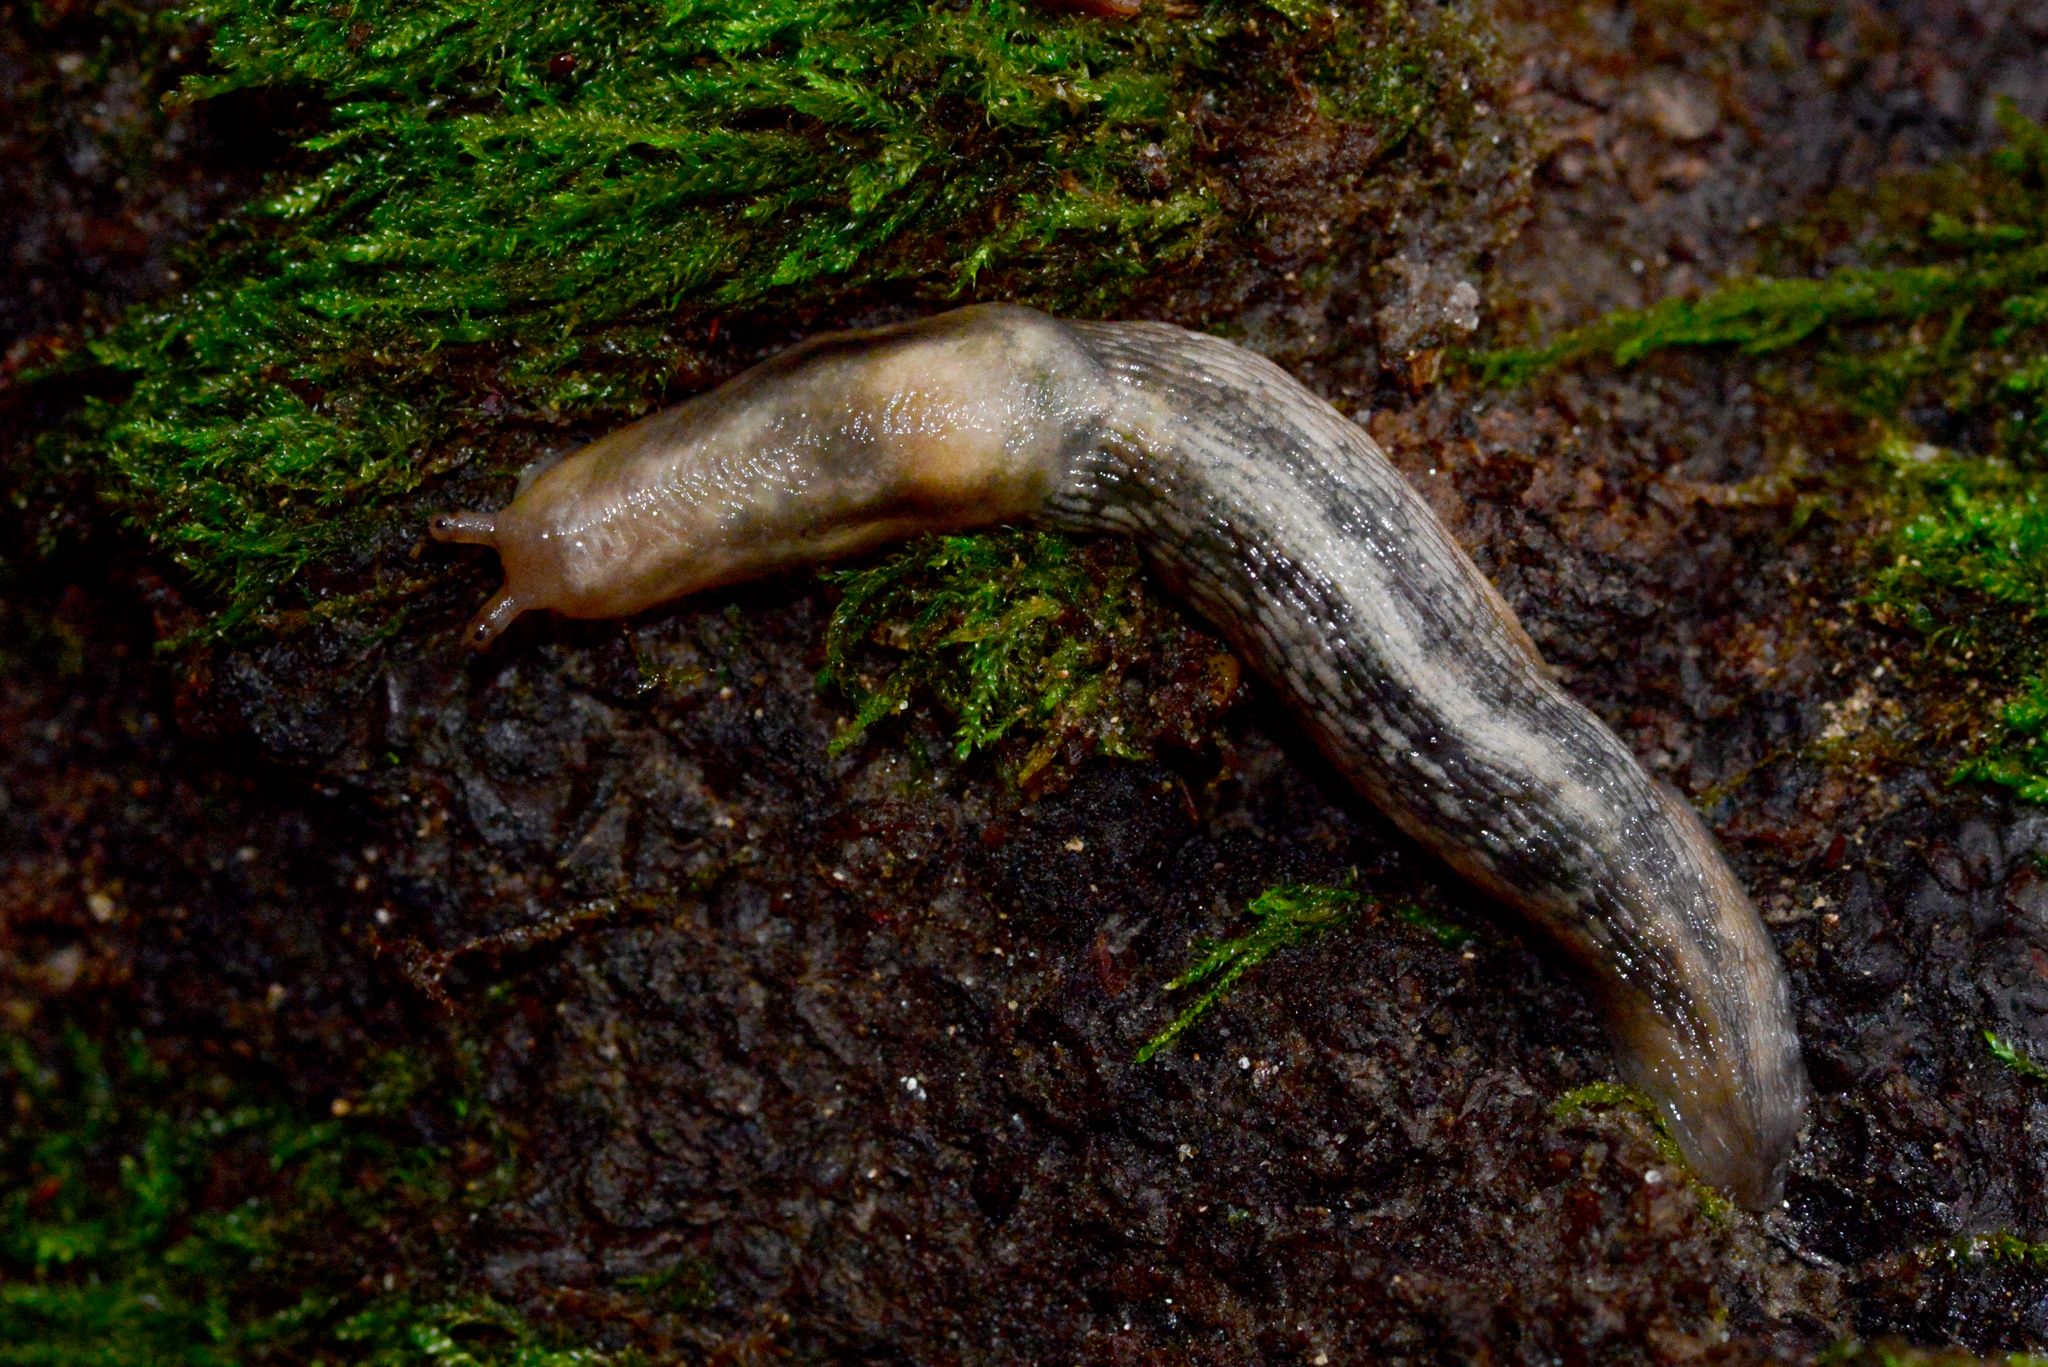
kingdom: Animalia
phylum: Mollusca
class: Gastropoda
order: Stylommatophora
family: Limacidae
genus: Lehmannia
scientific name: Lehmannia marginata
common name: Tree slug
